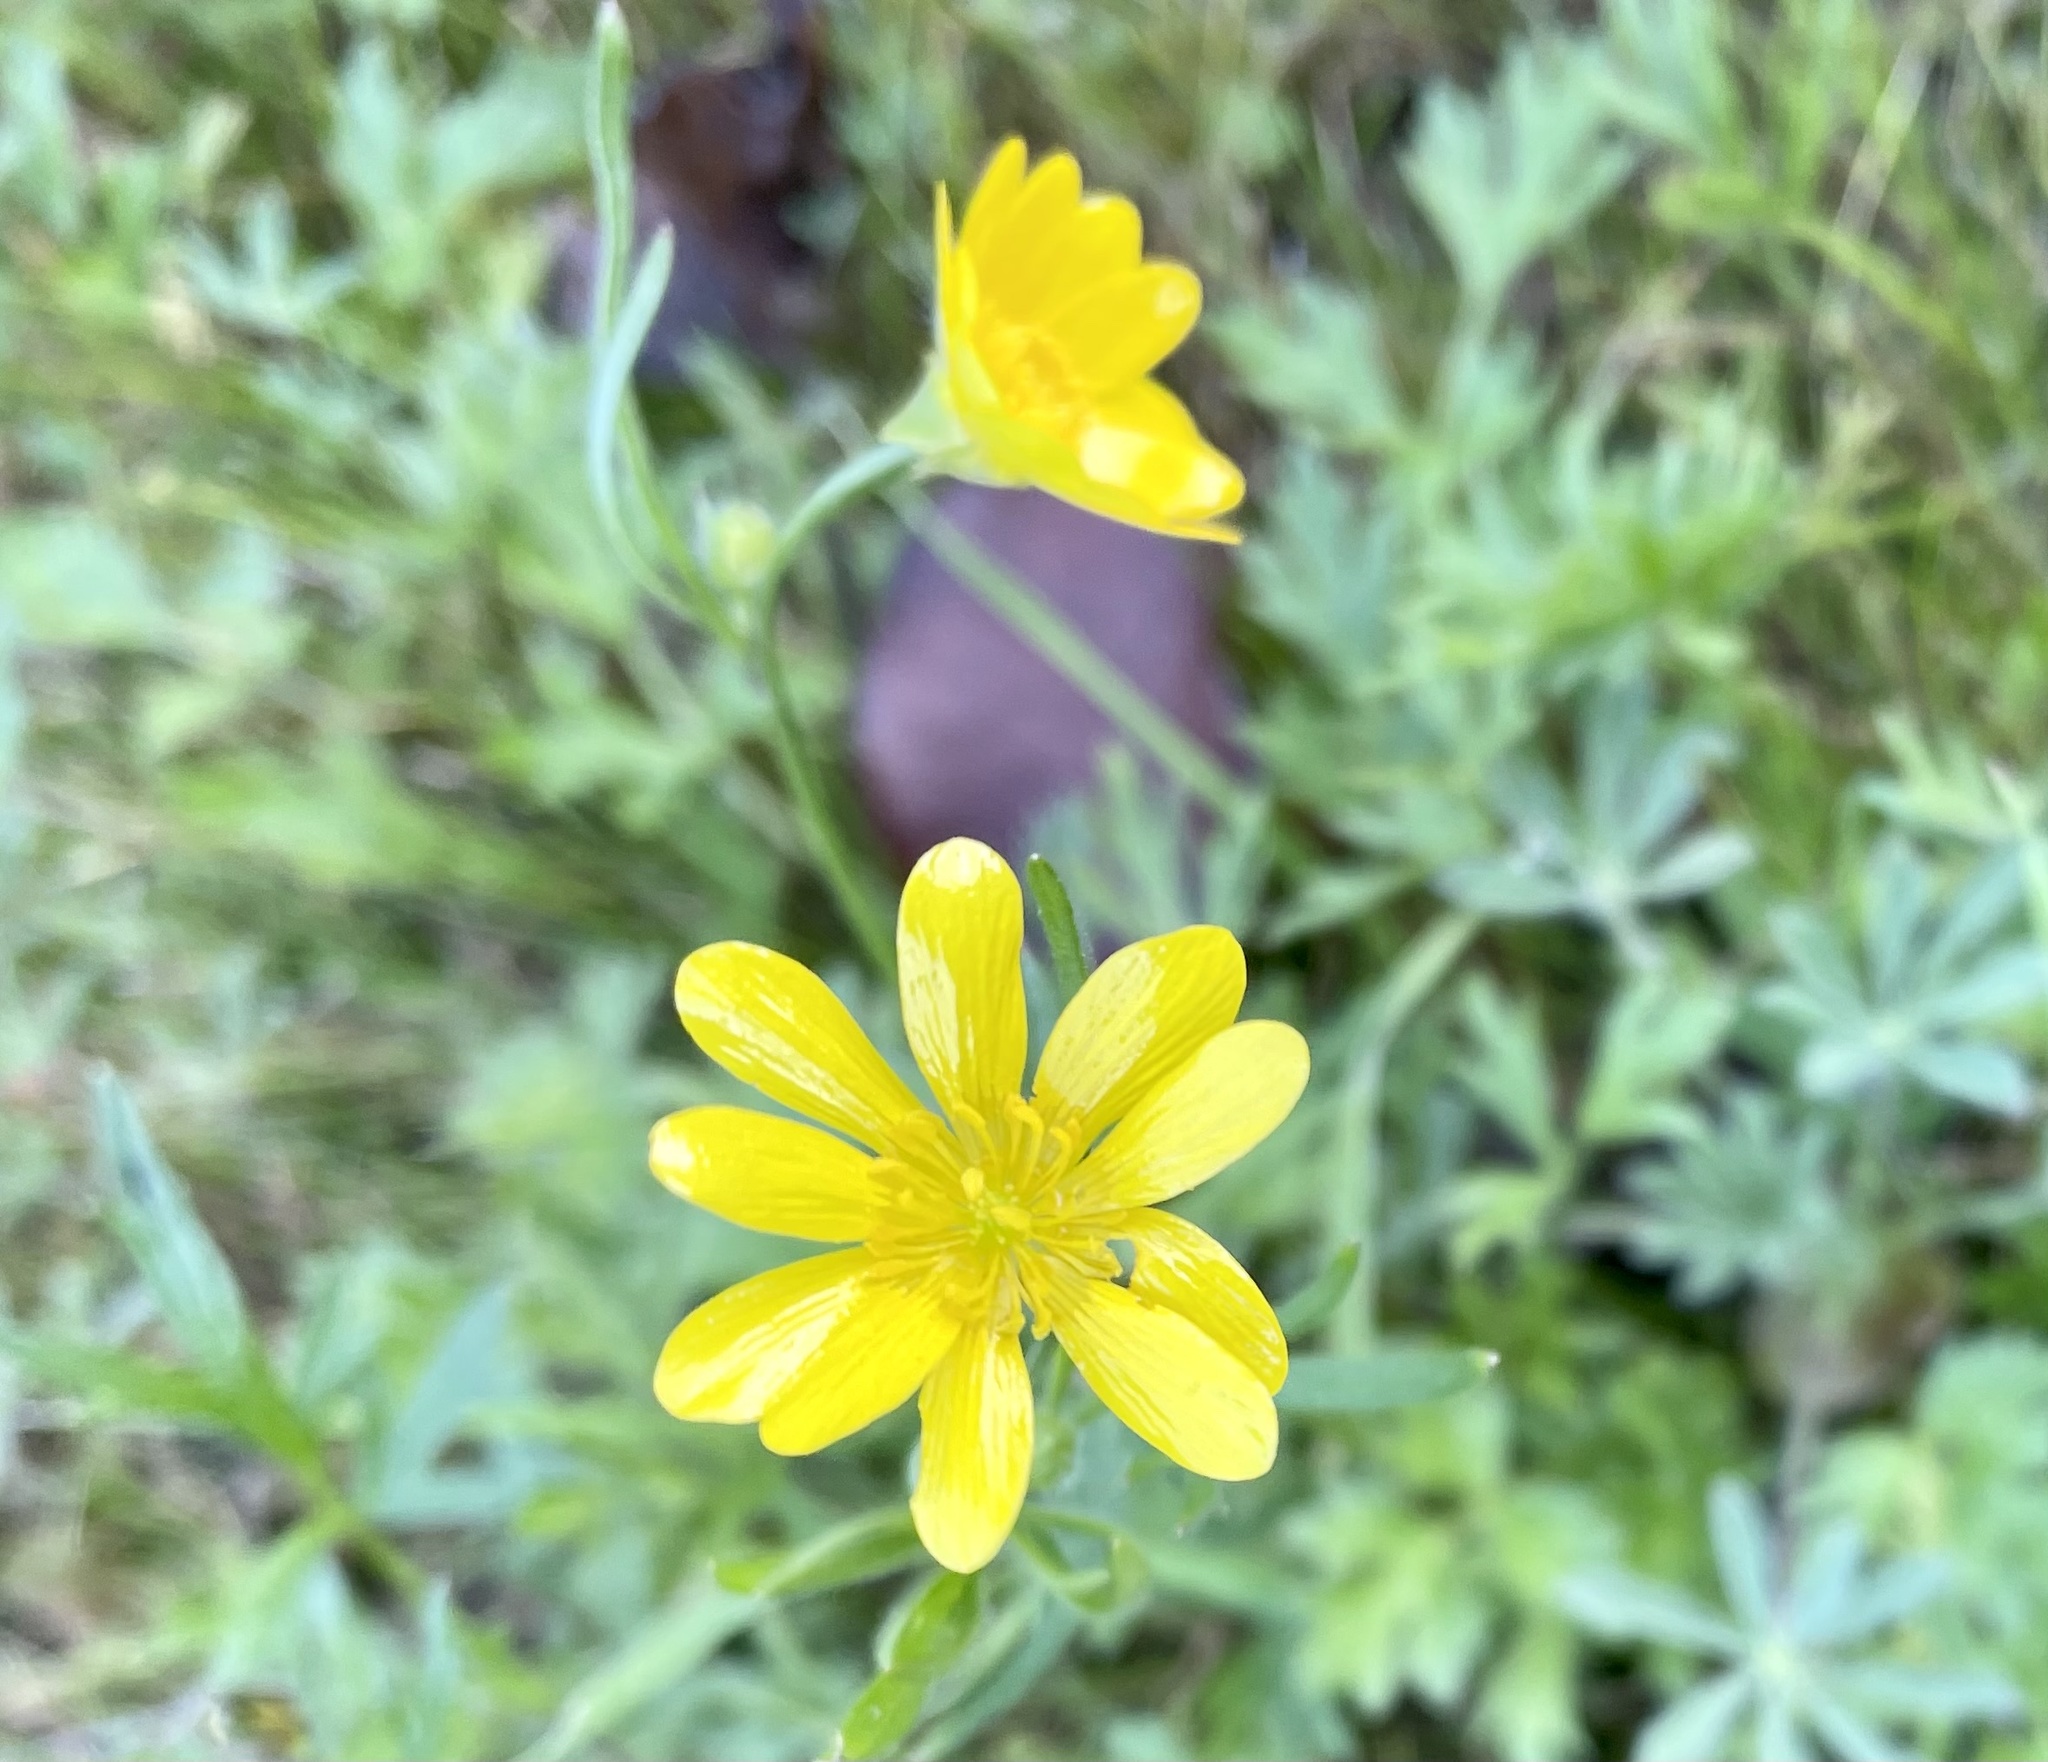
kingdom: Plantae
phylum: Tracheophyta
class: Magnoliopsida
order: Ranunculales
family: Ranunculaceae
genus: Ranunculus
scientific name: Ranunculus californicus
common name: California buttercup
